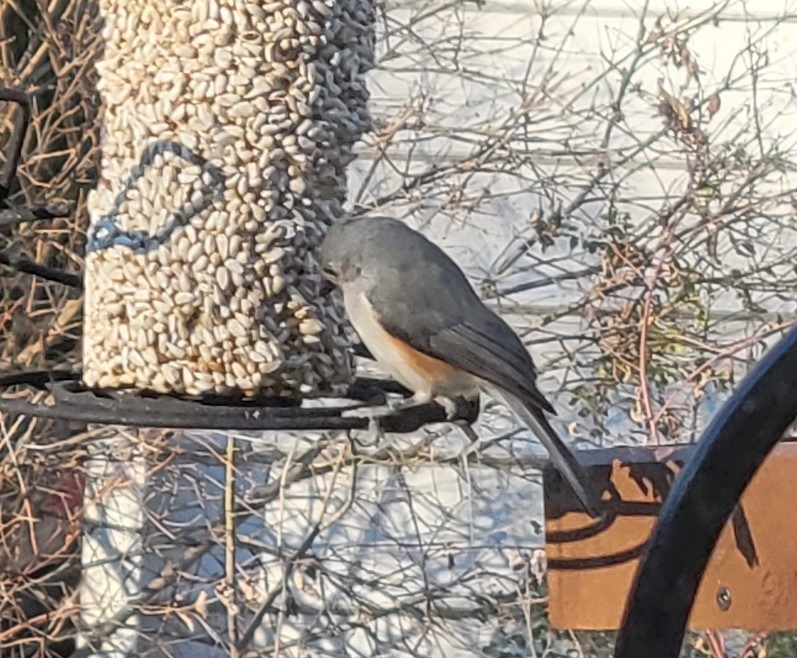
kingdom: Animalia
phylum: Chordata
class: Aves
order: Passeriformes
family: Paridae
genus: Baeolophus
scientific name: Baeolophus bicolor
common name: Tufted titmouse
